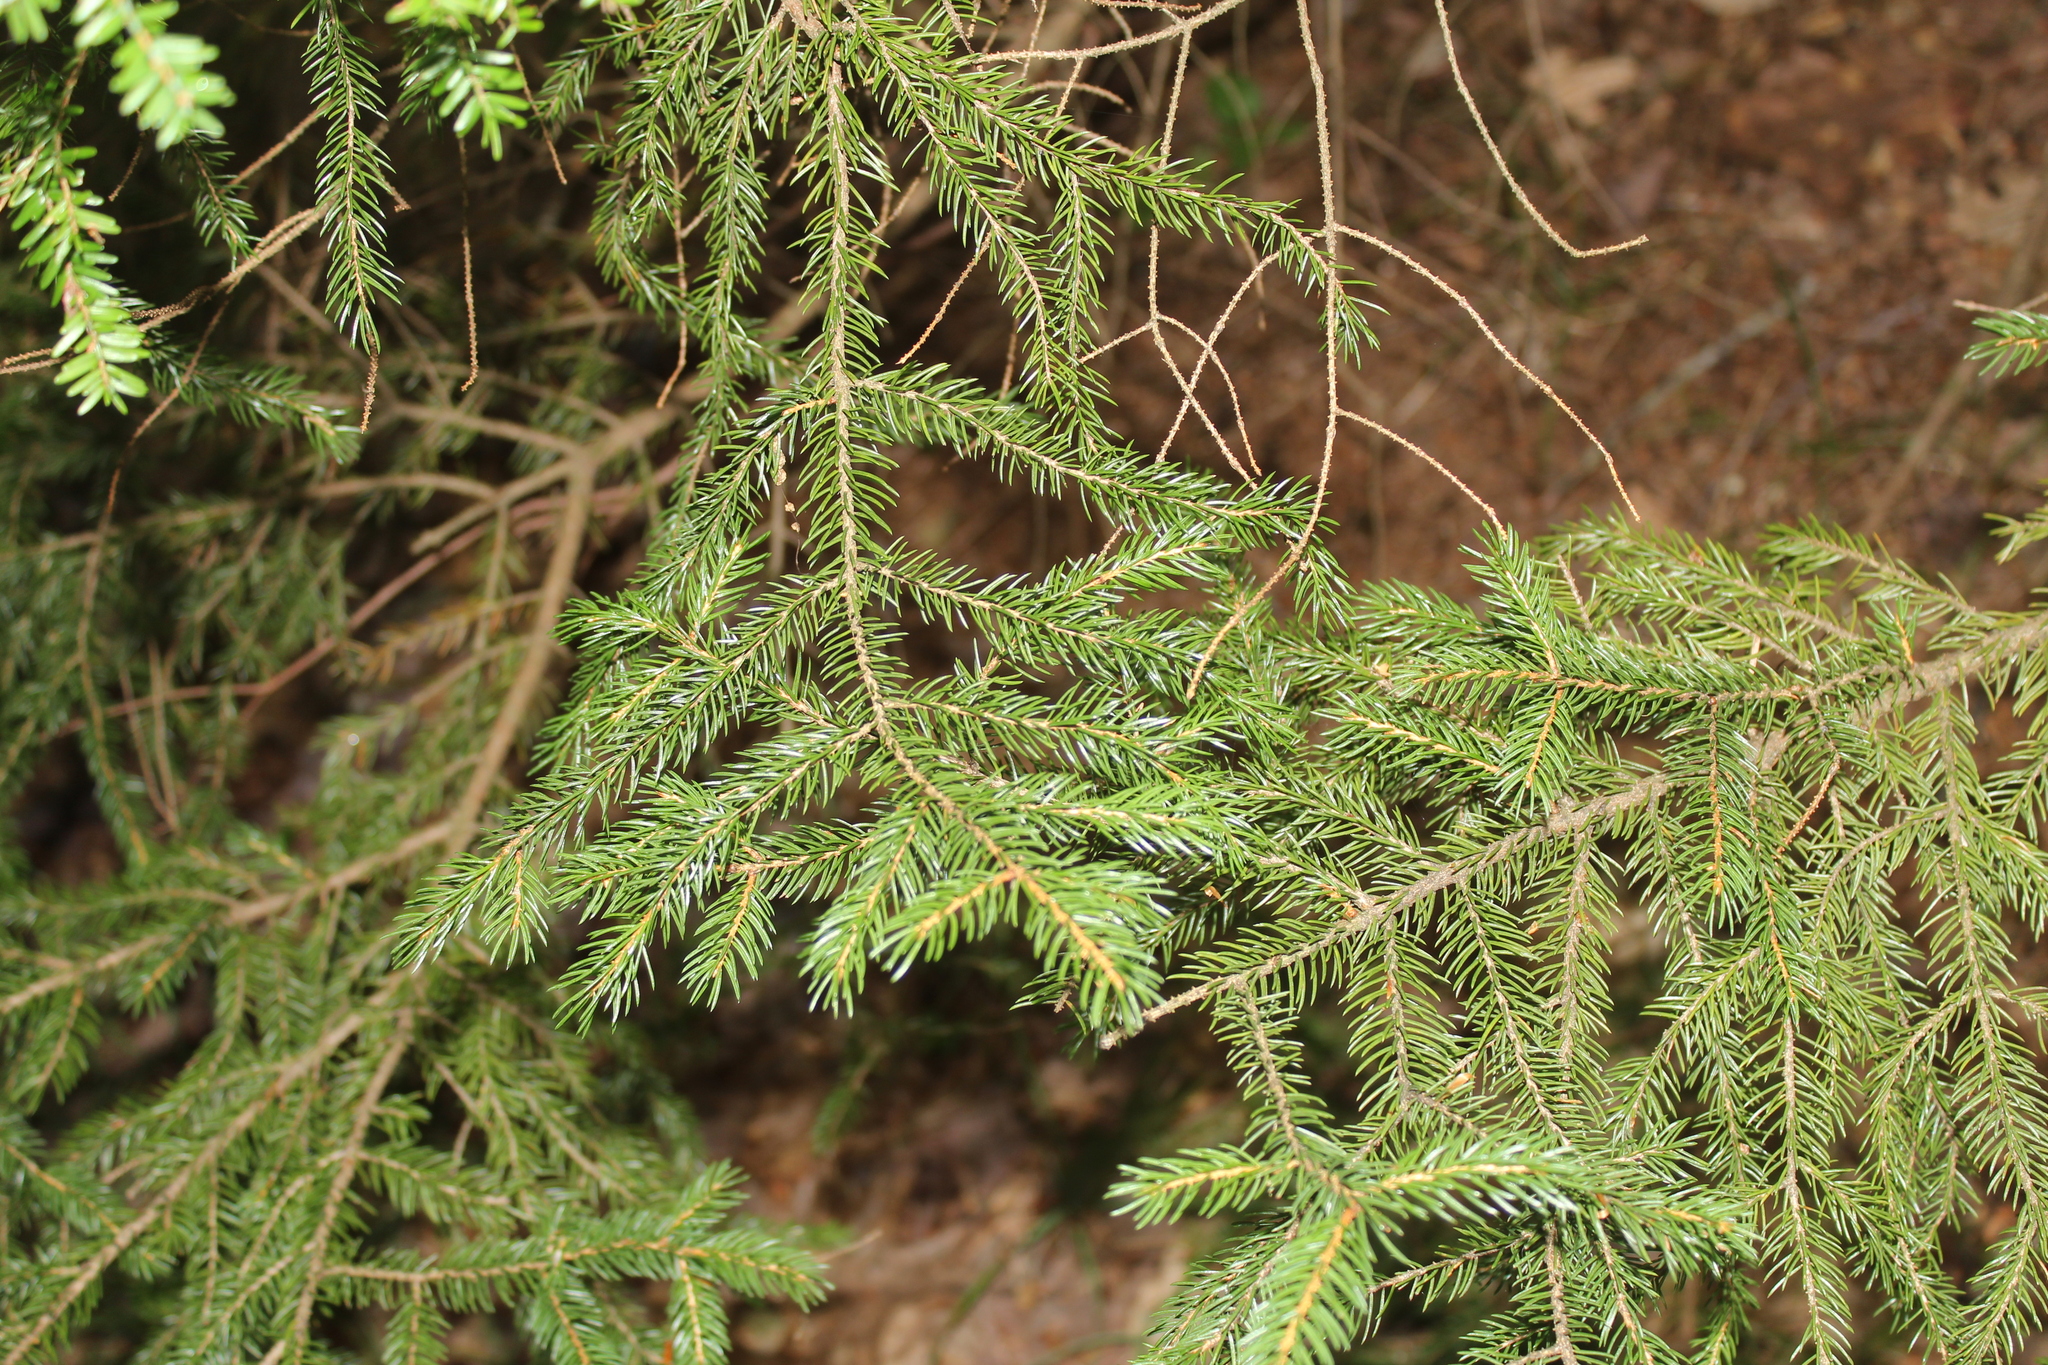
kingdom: Plantae
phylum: Tracheophyta
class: Pinopsida
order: Pinales
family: Pinaceae
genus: Picea
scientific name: Picea rubens
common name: Red spruce
